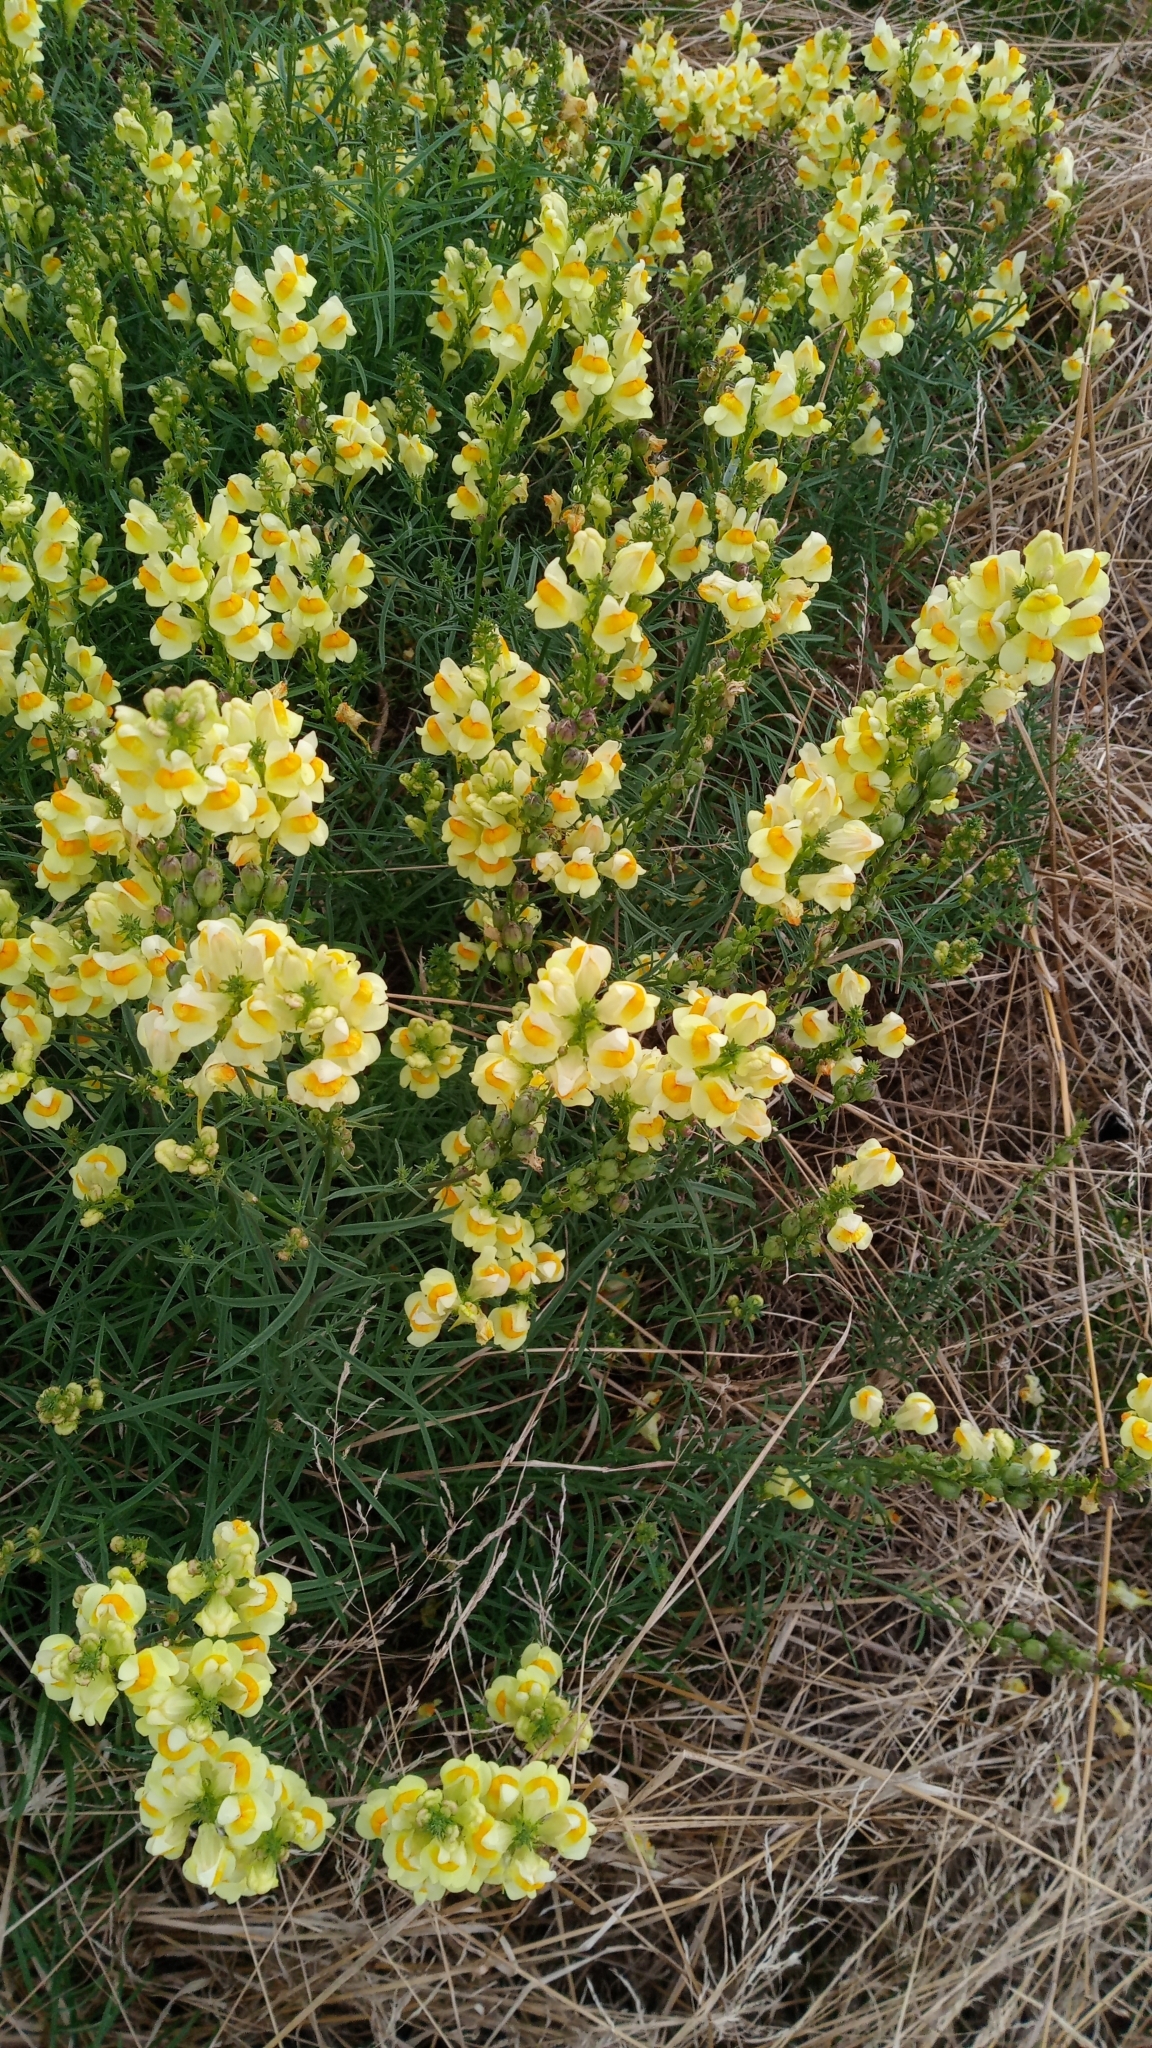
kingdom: Plantae
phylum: Tracheophyta
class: Magnoliopsida
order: Lamiales
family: Plantaginaceae
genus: Linaria
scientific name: Linaria vulgaris
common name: Butter and eggs
